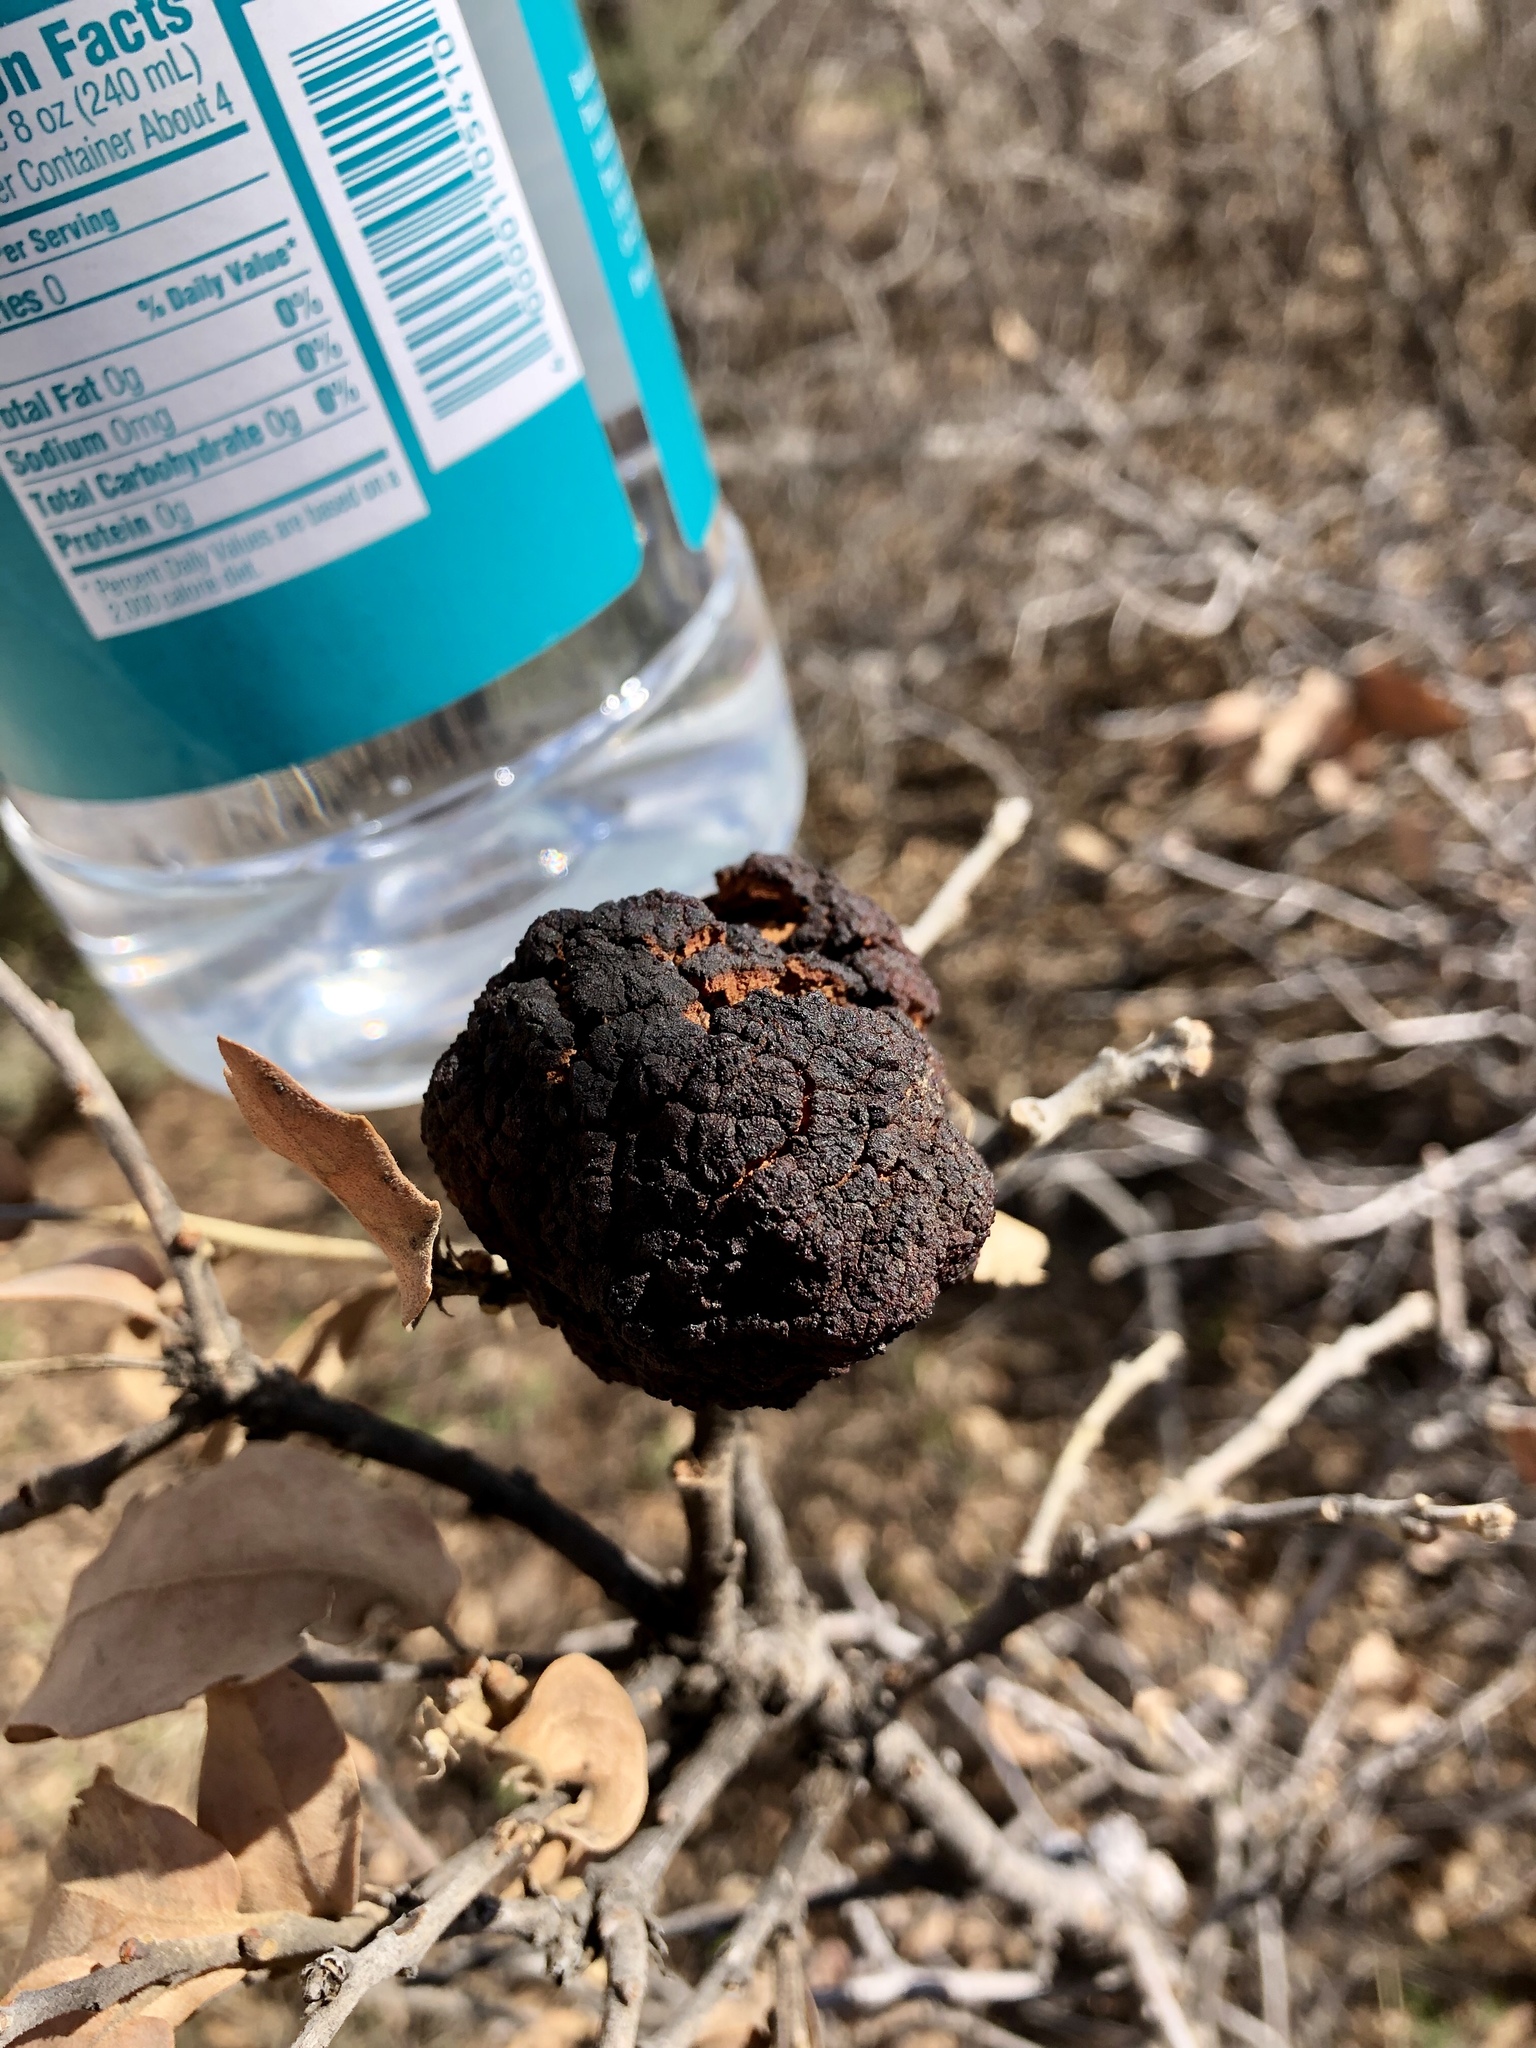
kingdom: Animalia
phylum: Arthropoda
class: Insecta
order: Hymenoptera
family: Cynipidae
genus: Andricus
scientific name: Andricus
